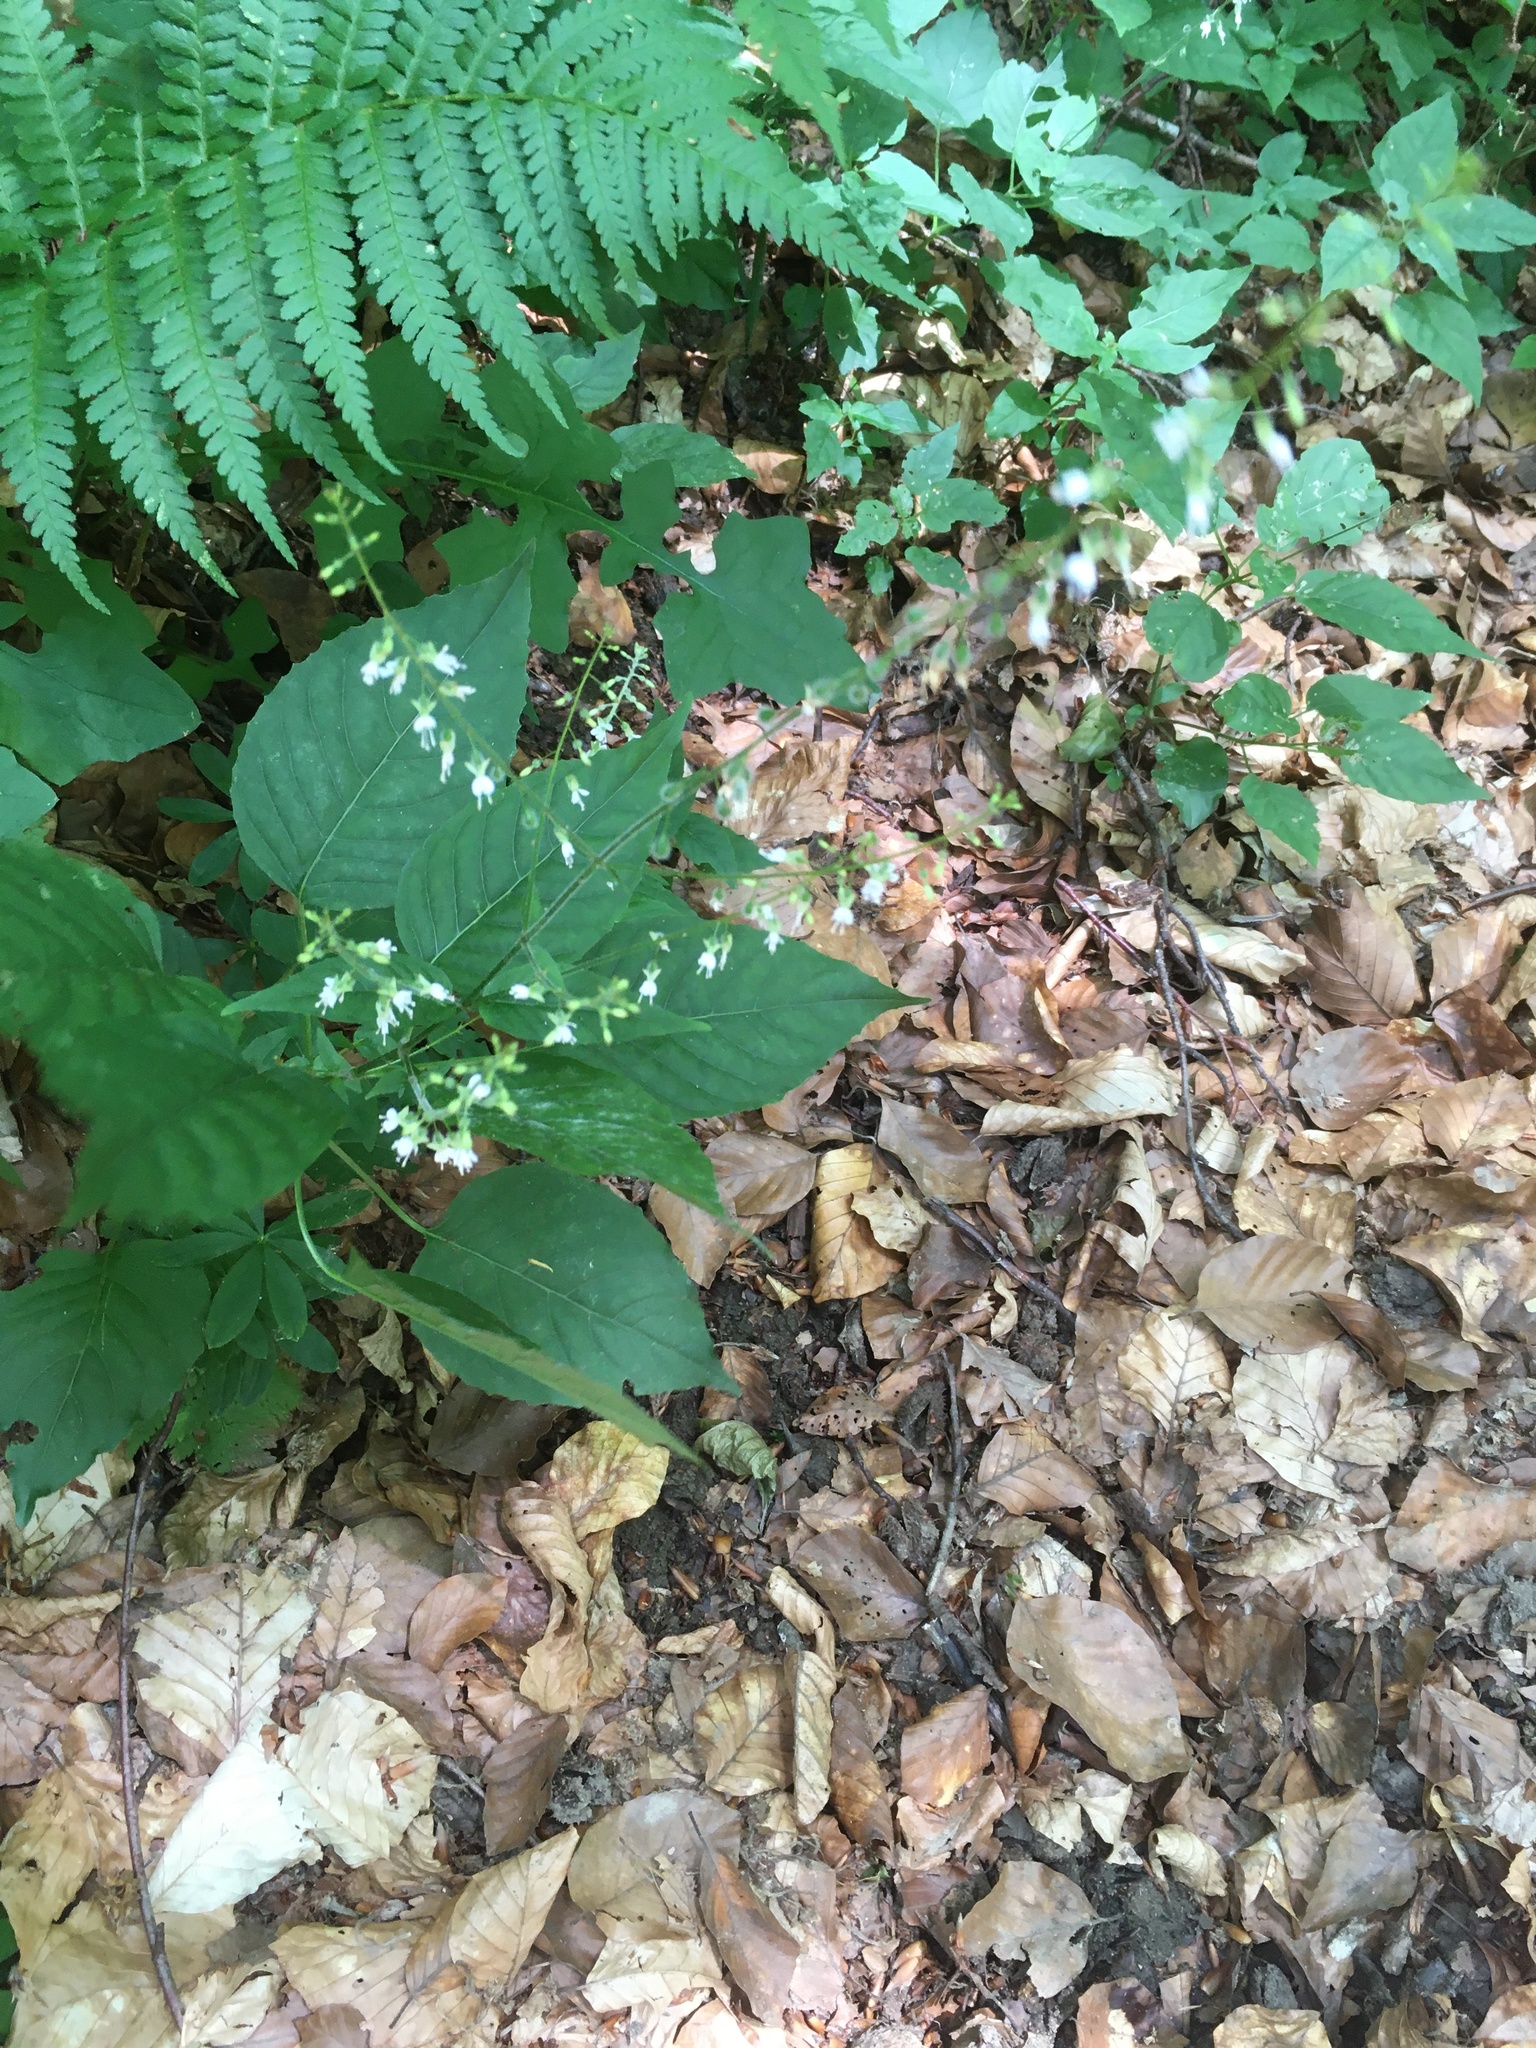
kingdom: Plantae
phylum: Tracheophyta
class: Magnoliopsida
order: Myrtales
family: Onagraceae
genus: Circaea
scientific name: Circaea lutetiana
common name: Enchanter's-nightshade
